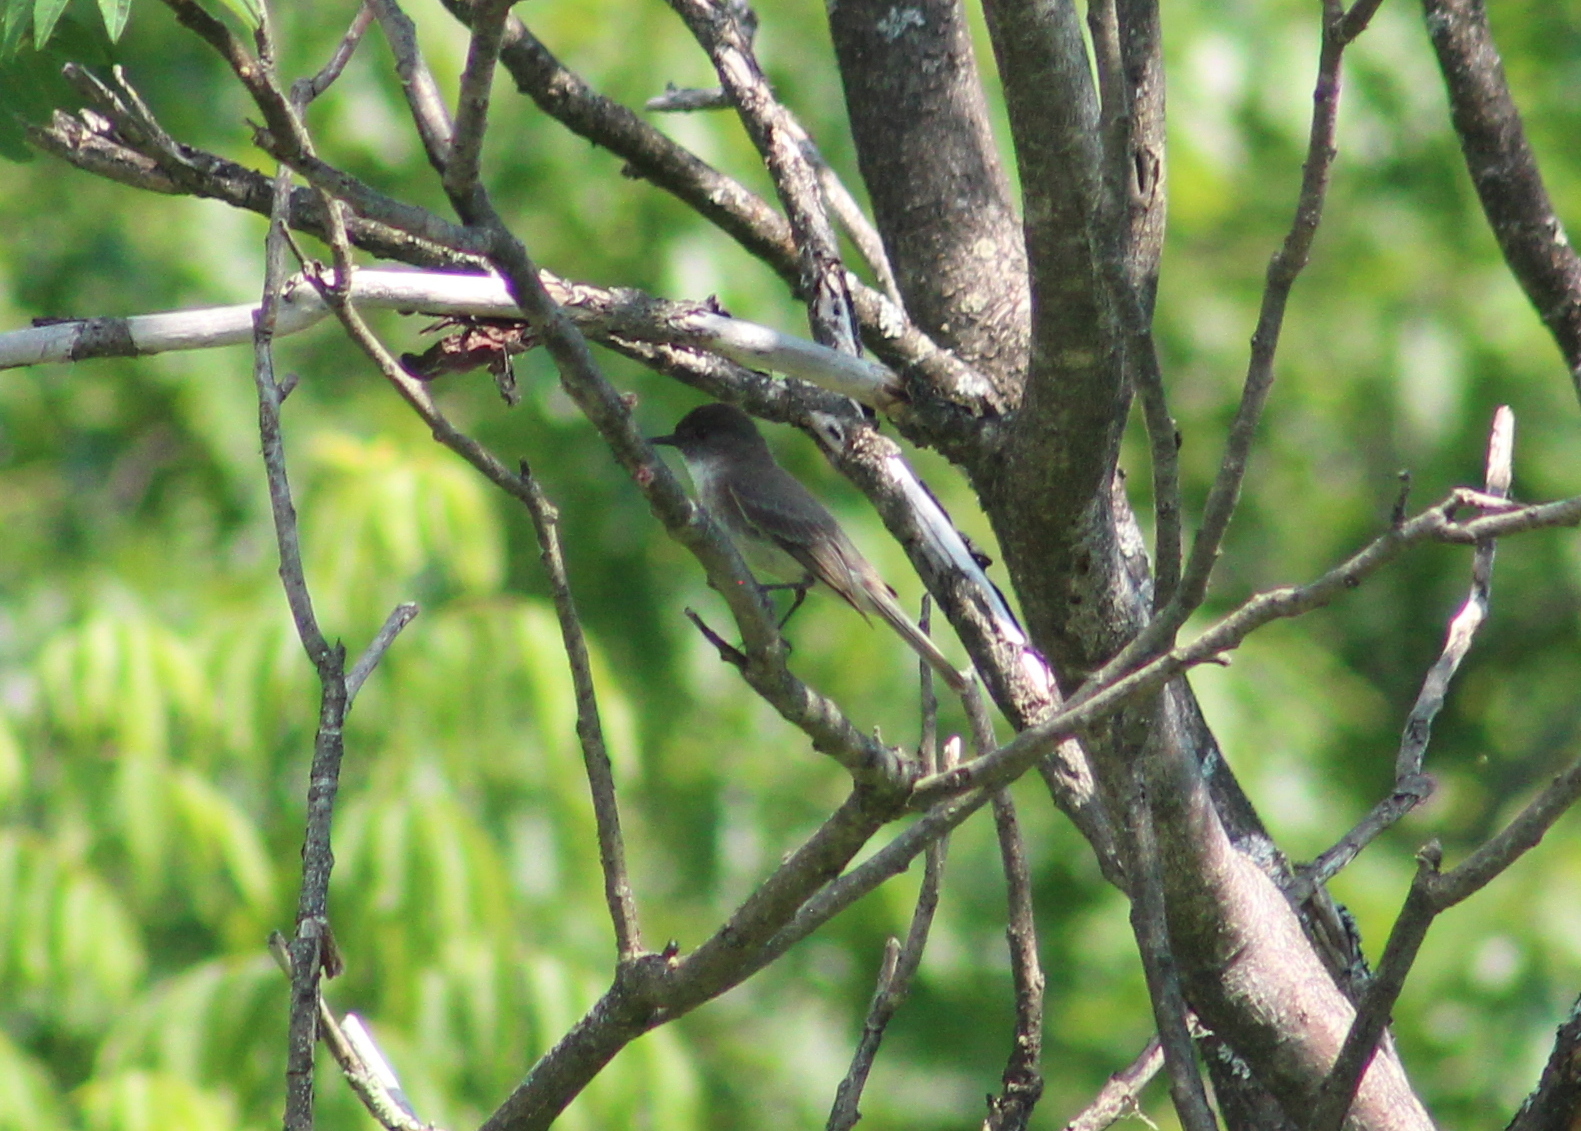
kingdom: Animalia
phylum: Chordata
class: Aves
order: Passeriformes
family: Tyrannidae
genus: Sayornis
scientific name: Sayornis phoebe
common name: Eastern phoebe
